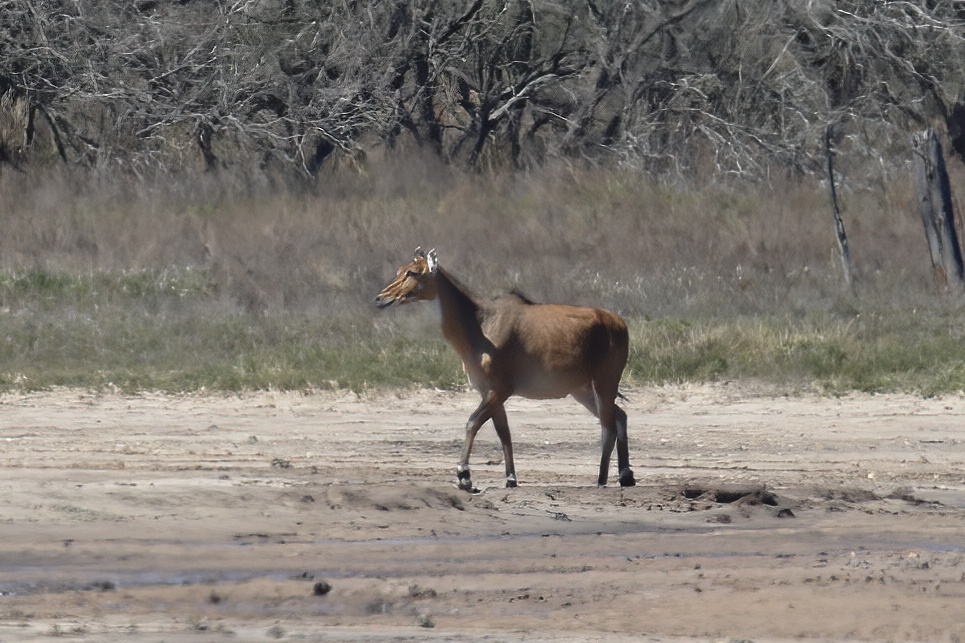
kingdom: Animalia
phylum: Chordata
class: Mammalia
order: Artiodactyla
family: Bovidae
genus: Boselaphus
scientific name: Boselaphus tragocamelus
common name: Nilgai
